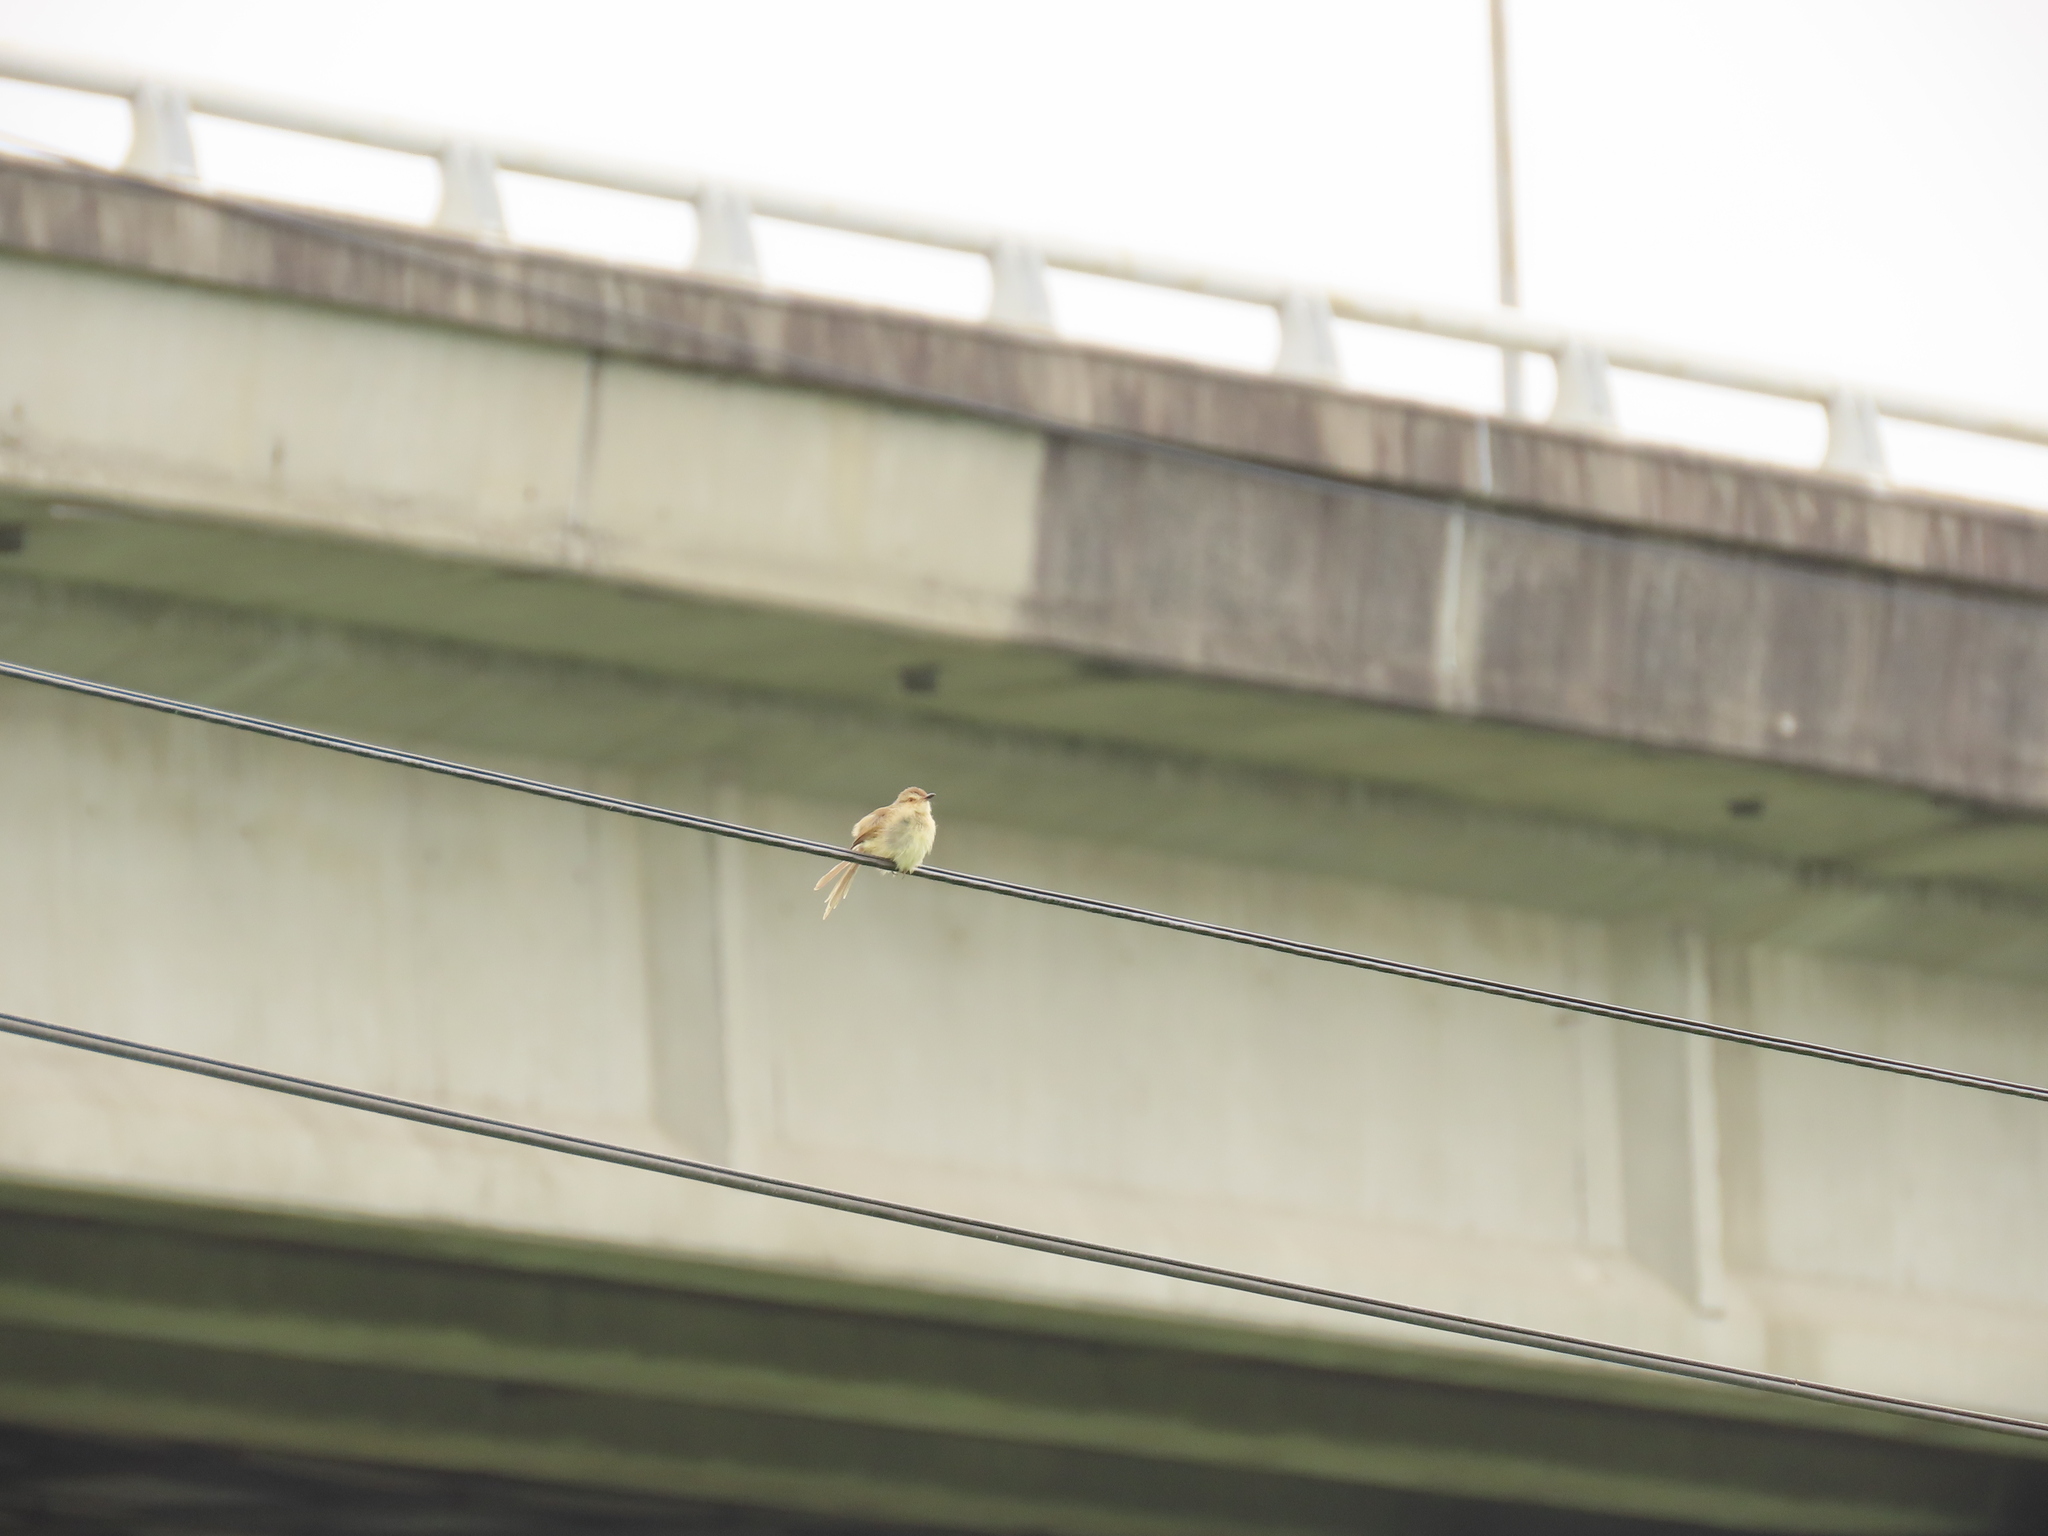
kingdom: Animalia
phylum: Chordata
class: Aves
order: Passeriformes
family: Cisticolidae
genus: Prinia
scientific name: Prinia inornata
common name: Plain prinia
